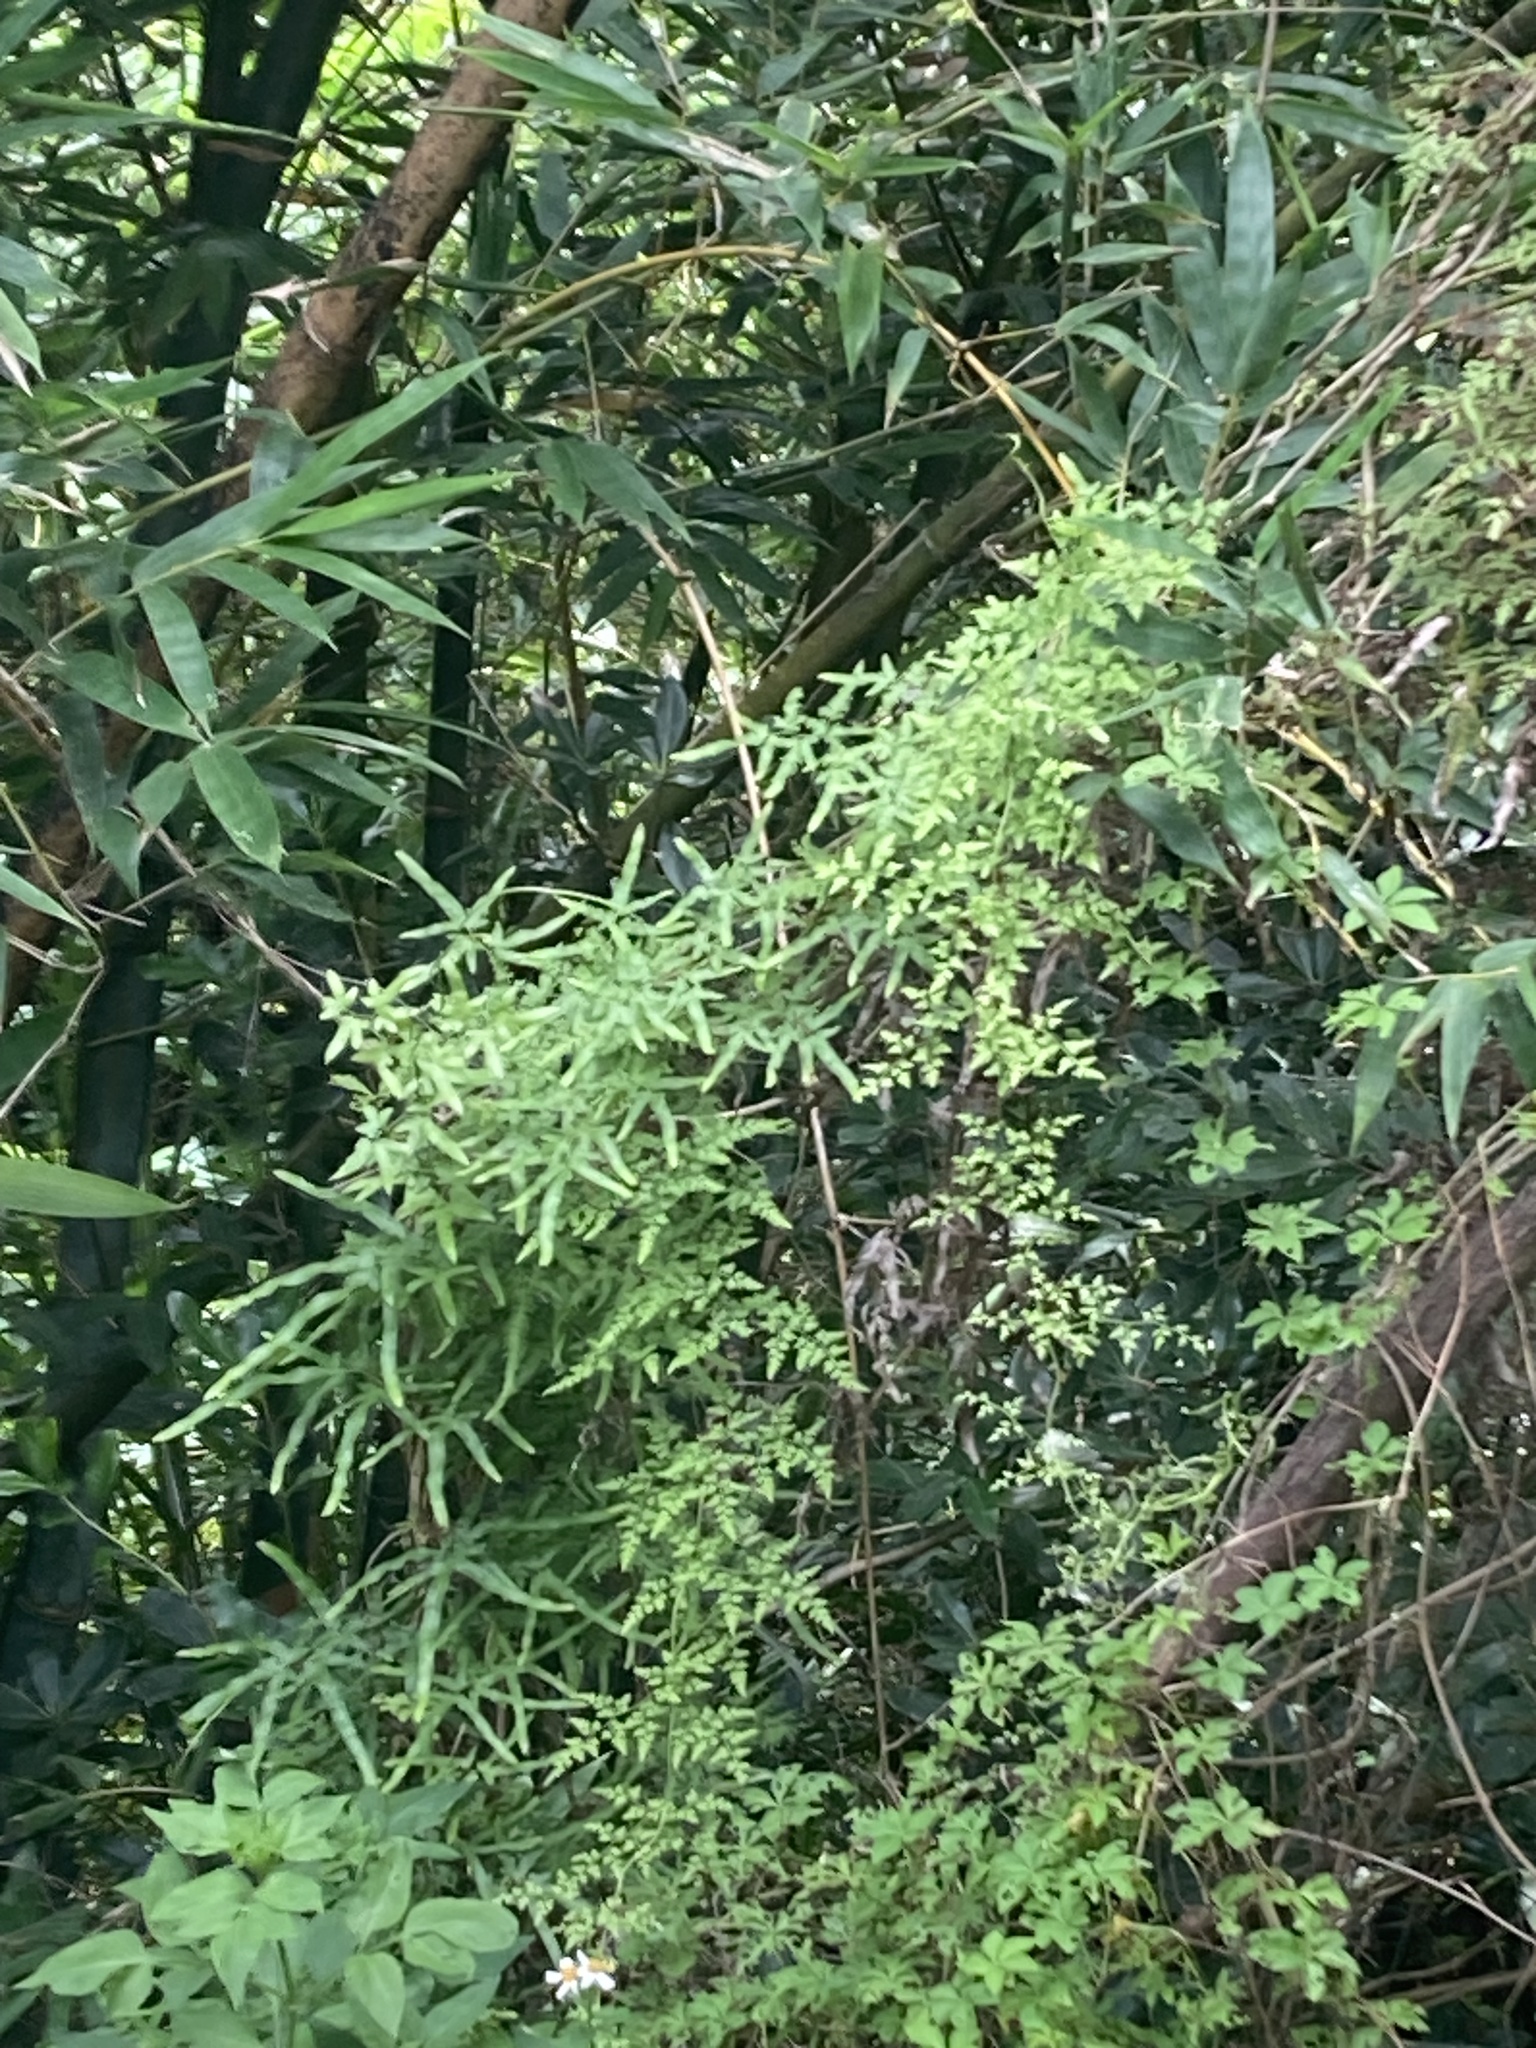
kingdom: Plantae
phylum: Tracheophyta
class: Polypodiopsida
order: Schizaeales
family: Lygodiaceae
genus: Lygodium
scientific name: Lygodium japonicum
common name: Japanese climbing fern
